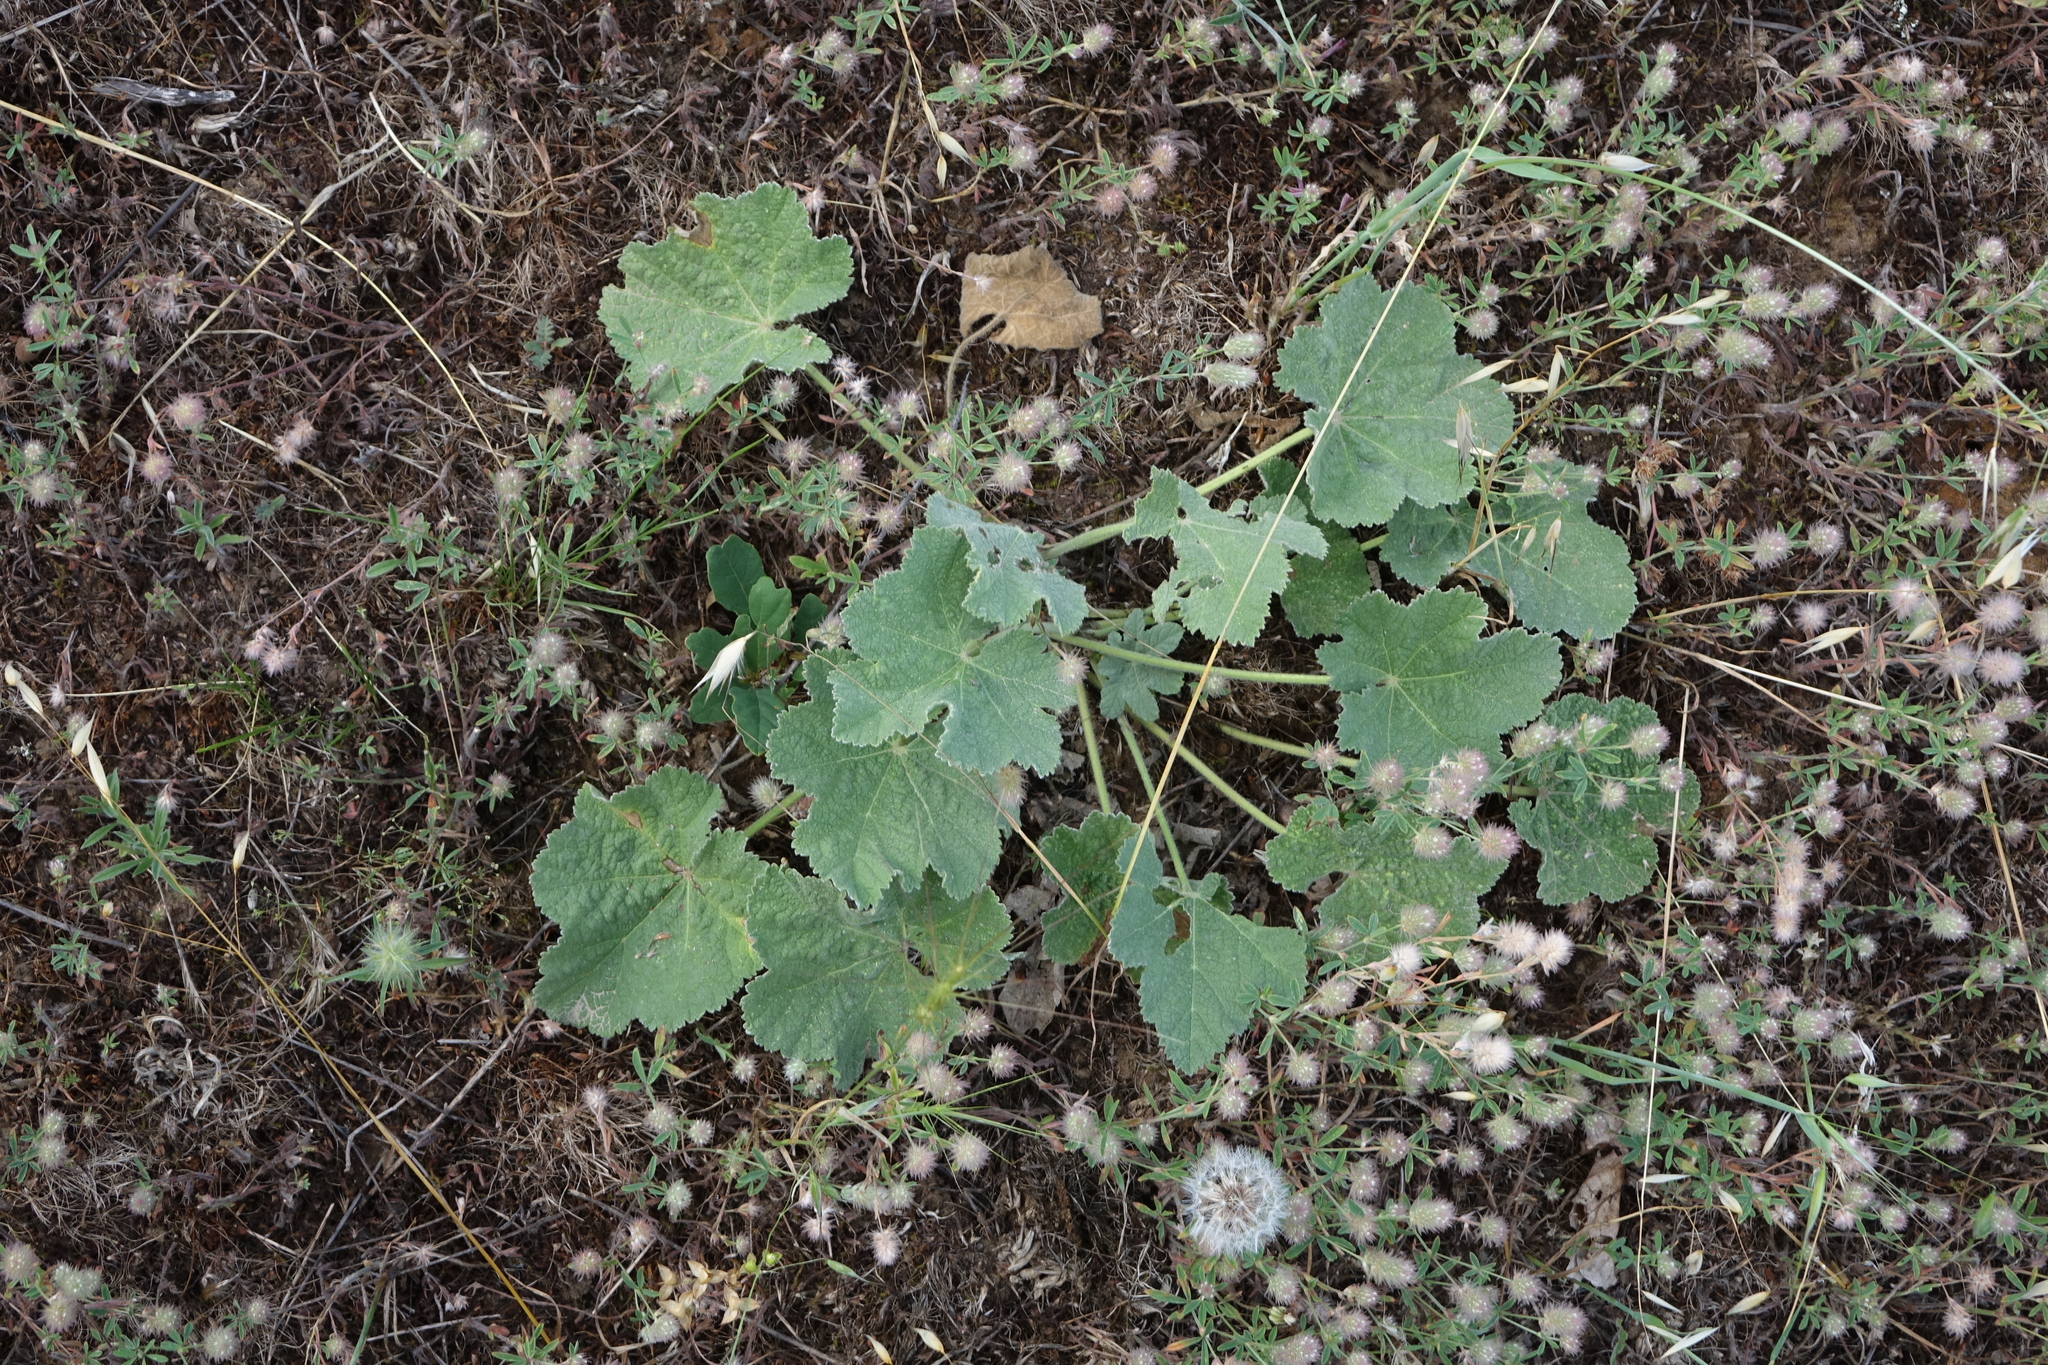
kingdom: Plantae
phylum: Tracheophyta
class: Magnoliopsida
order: Fabales
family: Fabaceae
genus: Trifolium
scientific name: Trifolium arvense
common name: Hare's-foot clover
